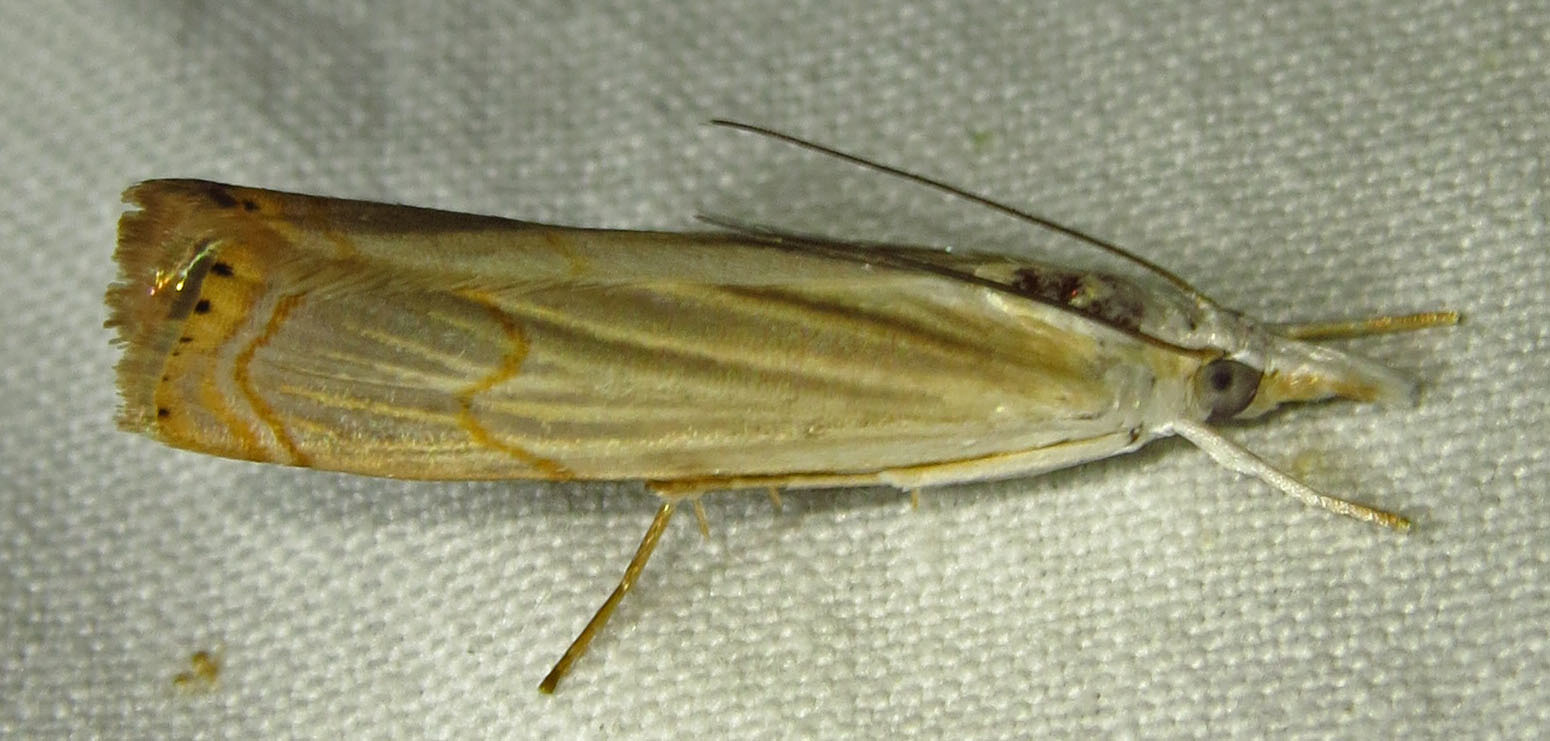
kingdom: Animalia
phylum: Arthropoda
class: Insecta
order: Lepidoptera
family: Crambidae
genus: Parapediasia
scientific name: Parapediasia decorellus
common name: Graceful grass-veneer
